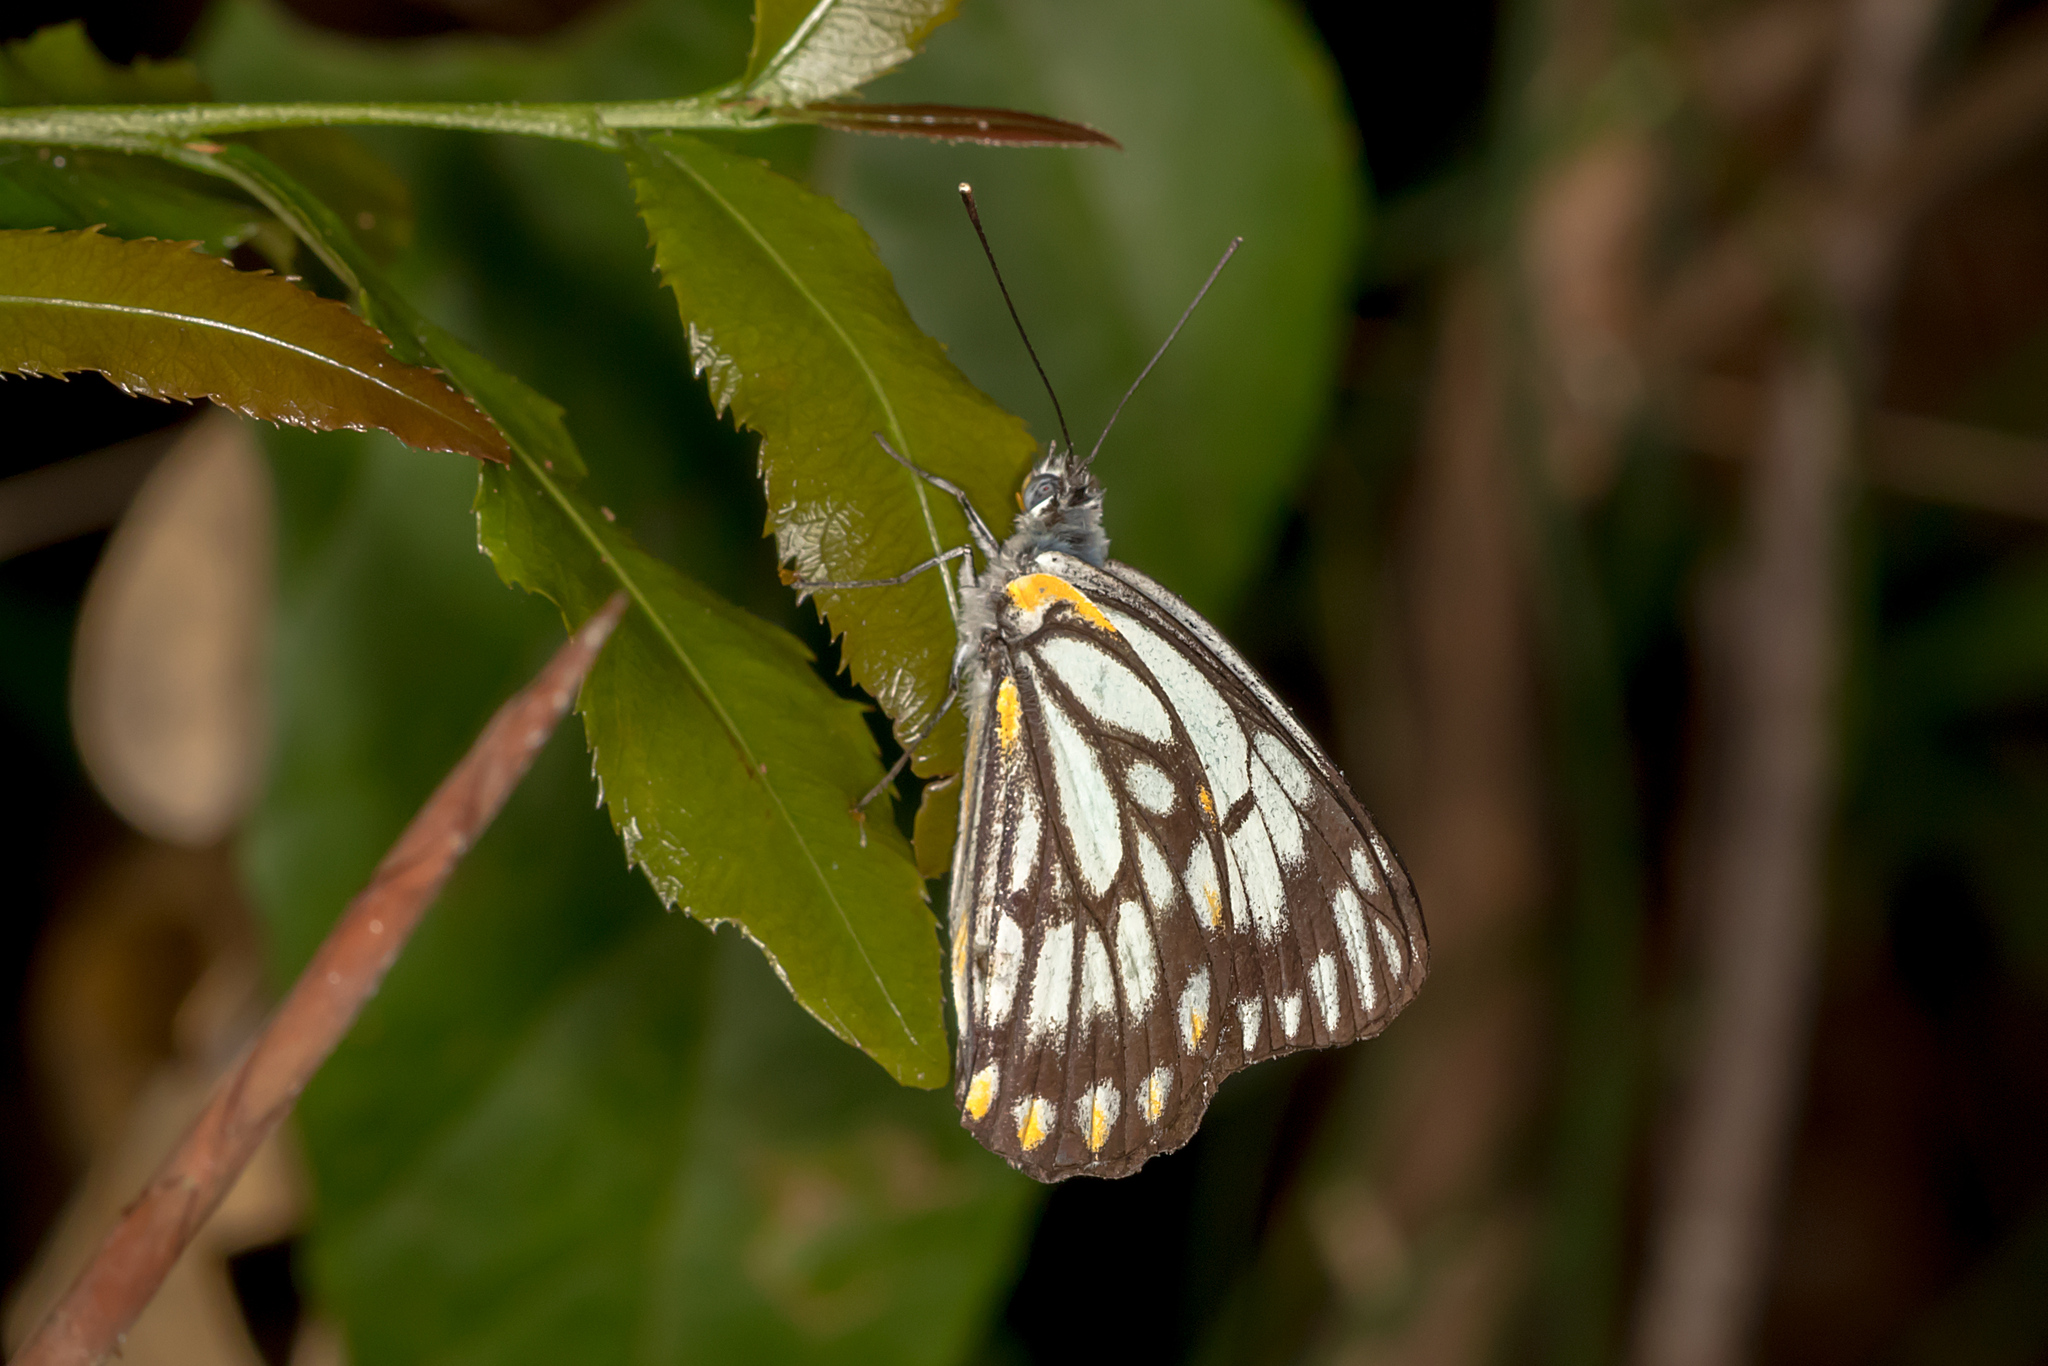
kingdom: Animalia
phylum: Arthropoda
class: Insecta
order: Lepidoptera
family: Pieridae
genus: Belenois
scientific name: Belenois java
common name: Caper white
